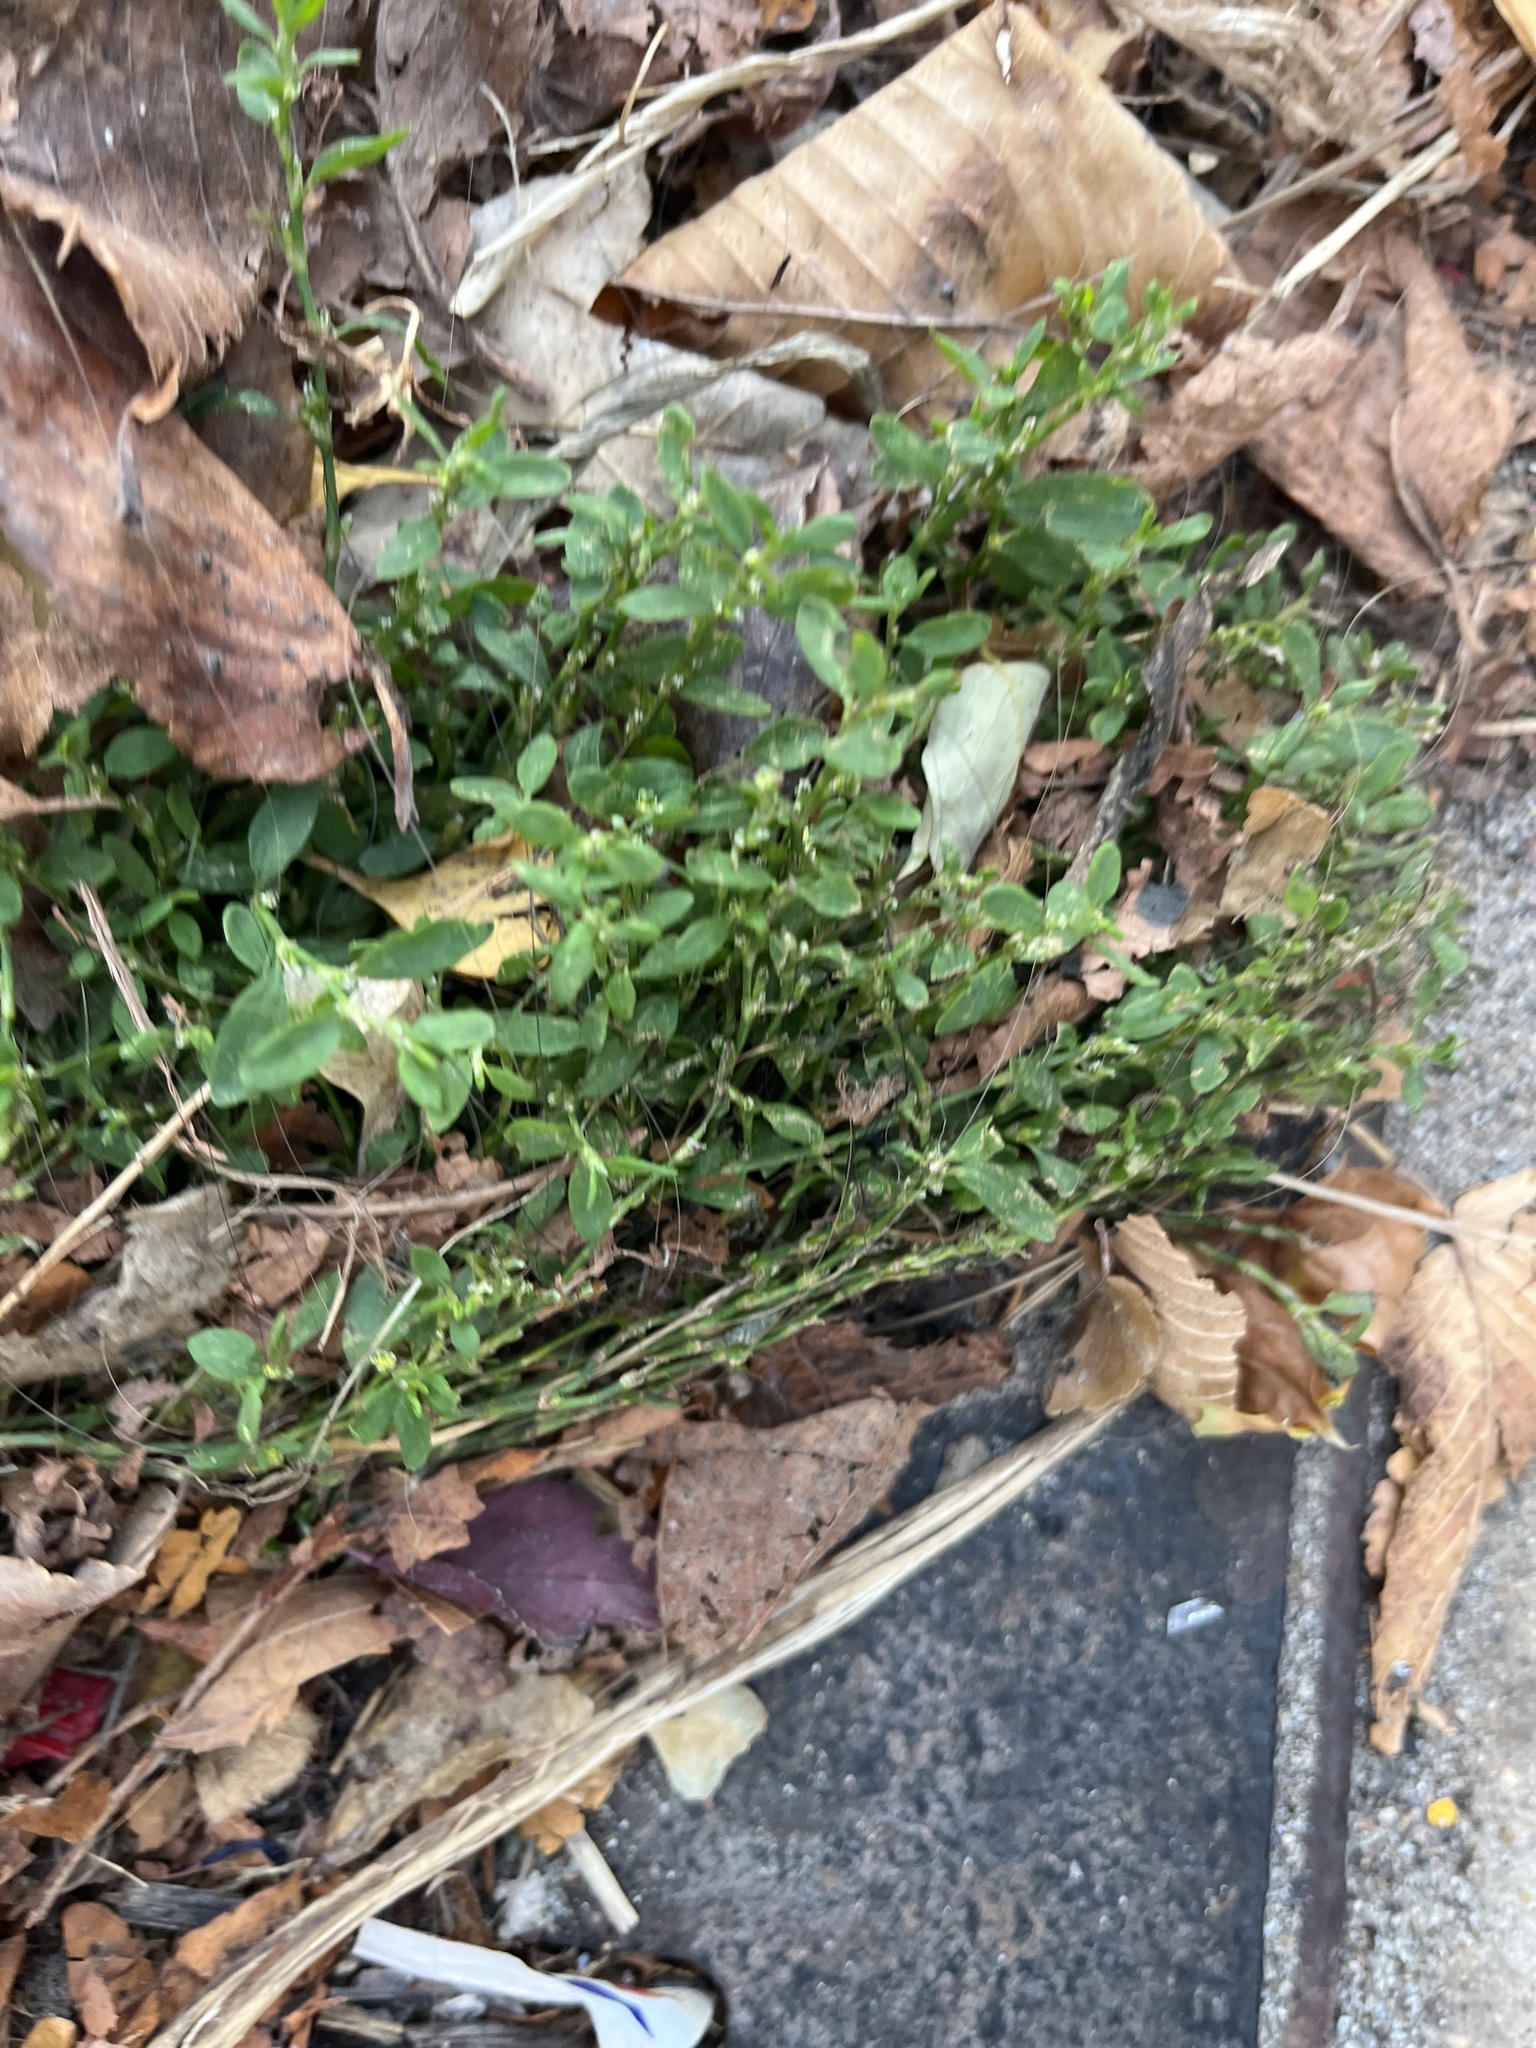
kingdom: Plantae
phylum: Tracheophyta
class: Magnoliopsida
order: Caryophyllales
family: Polygonaceae
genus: Polygonum
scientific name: Polygonum aviculare
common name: Prostrate knotweed
